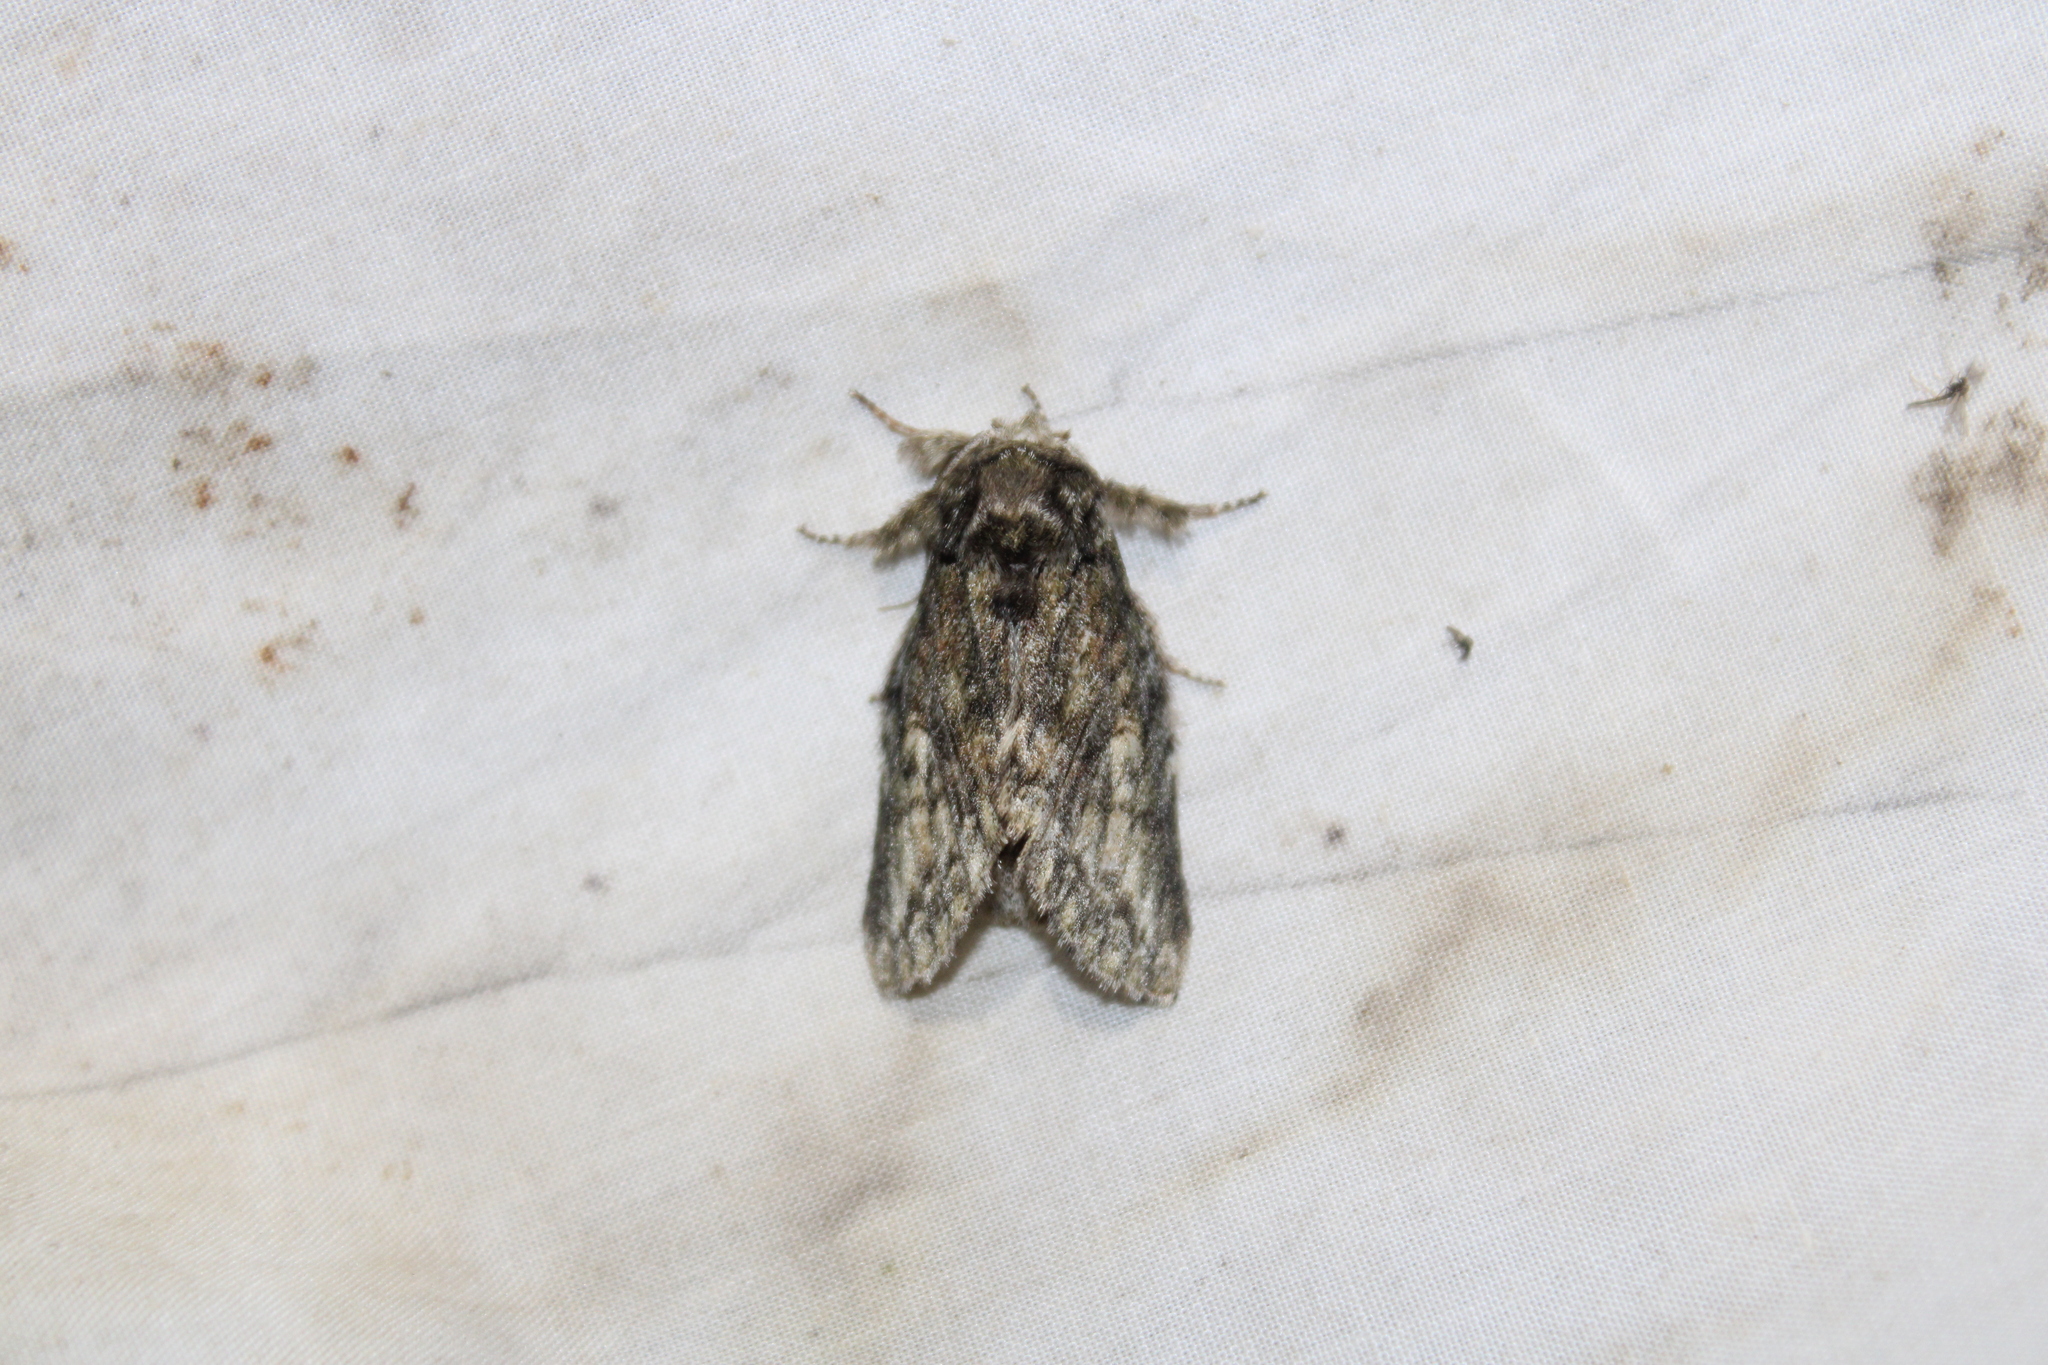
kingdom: Animalia
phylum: Arthropoda
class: Insecta
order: Lepidoptera
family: Notodontidae
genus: Heterocampa
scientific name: Heterocampa
